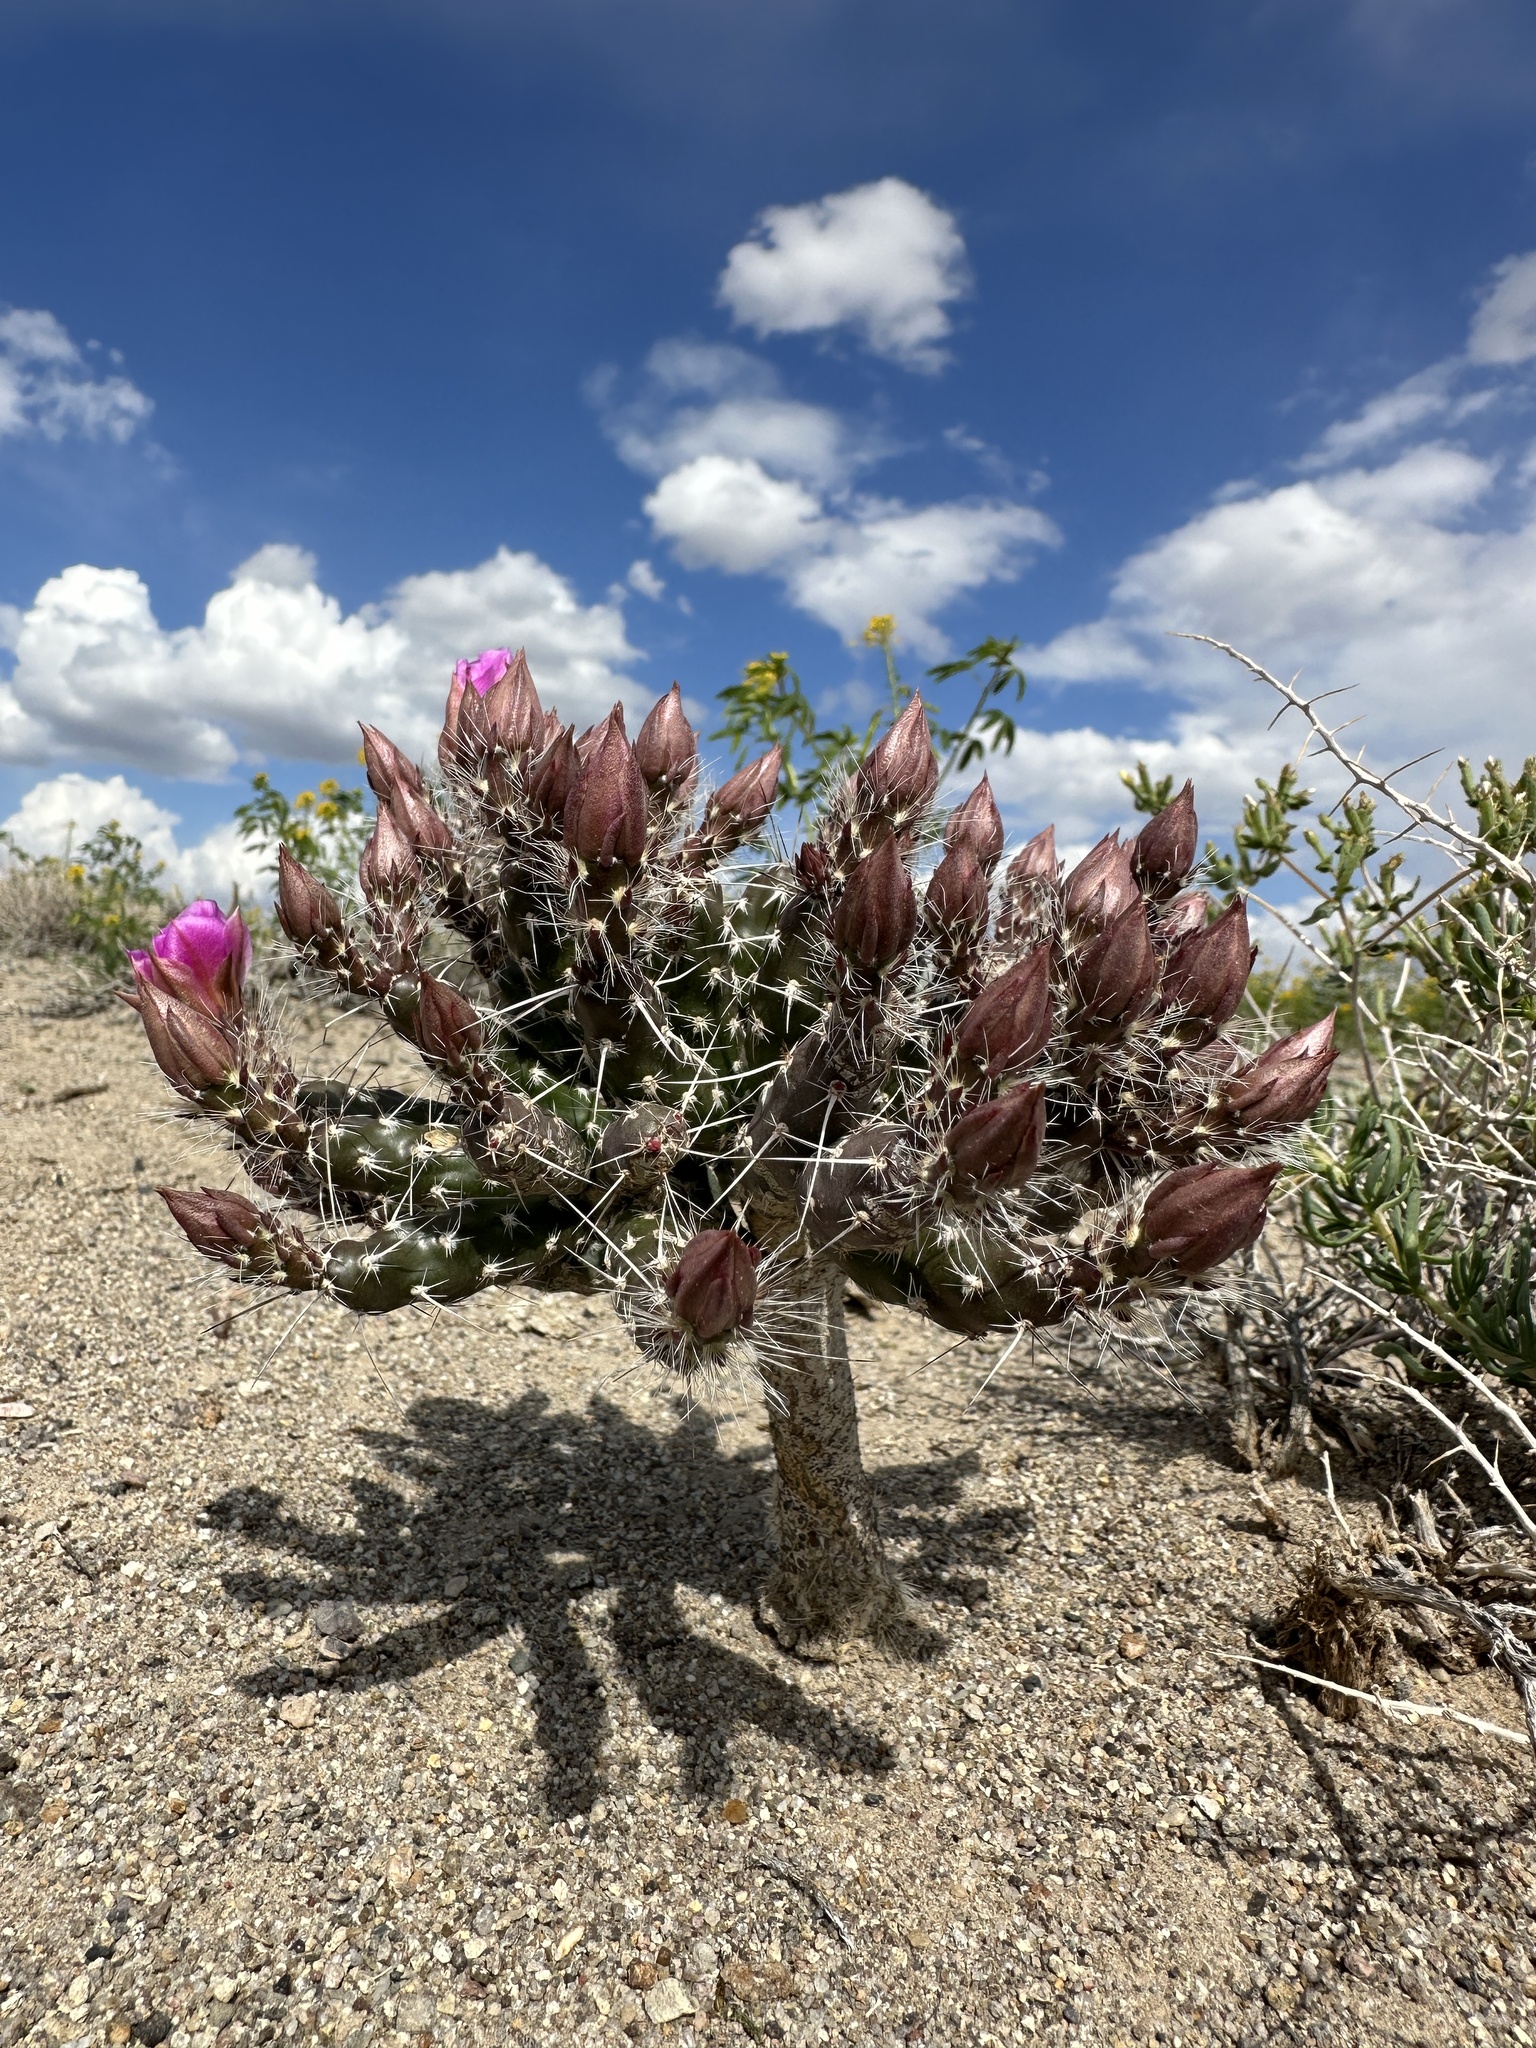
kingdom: Plantae
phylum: Tracheophyta
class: Magnoliopsida
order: Caryophyllales
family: Cactaceae
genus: Micropuntia
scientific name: Micropuntia pulchella
